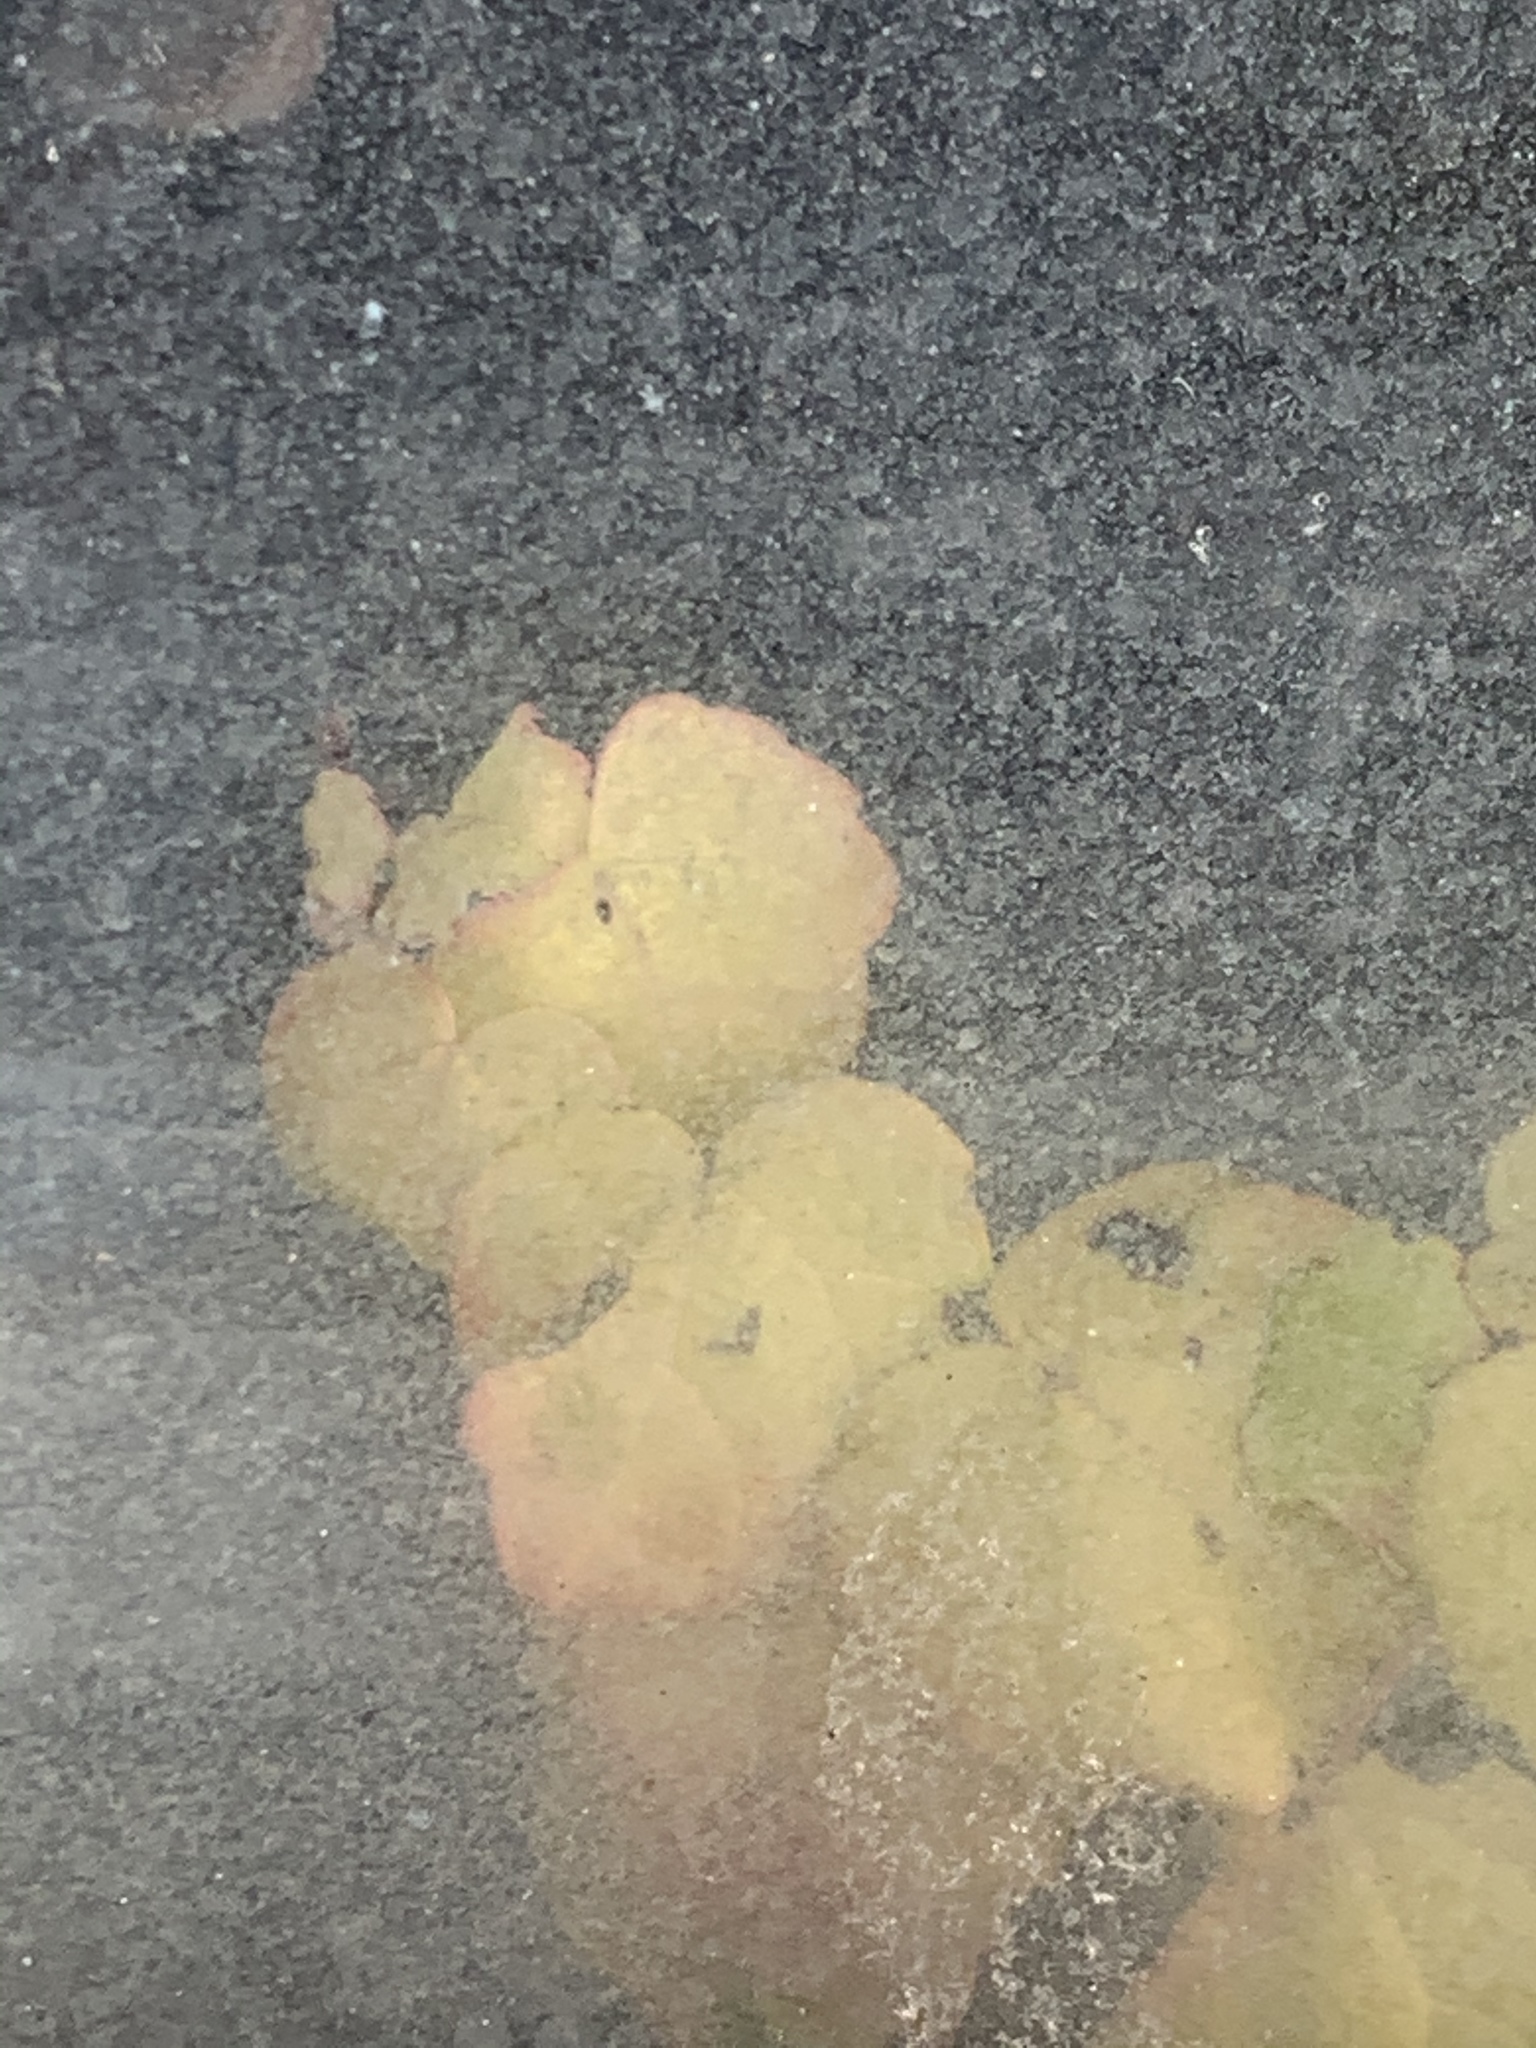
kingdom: Plantae
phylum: Tracheophyta
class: Magnoliopsida
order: Vitales
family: Vitaceae
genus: Parthenocissus
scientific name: Parthenocissus tricuspidata
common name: Boston ivy
